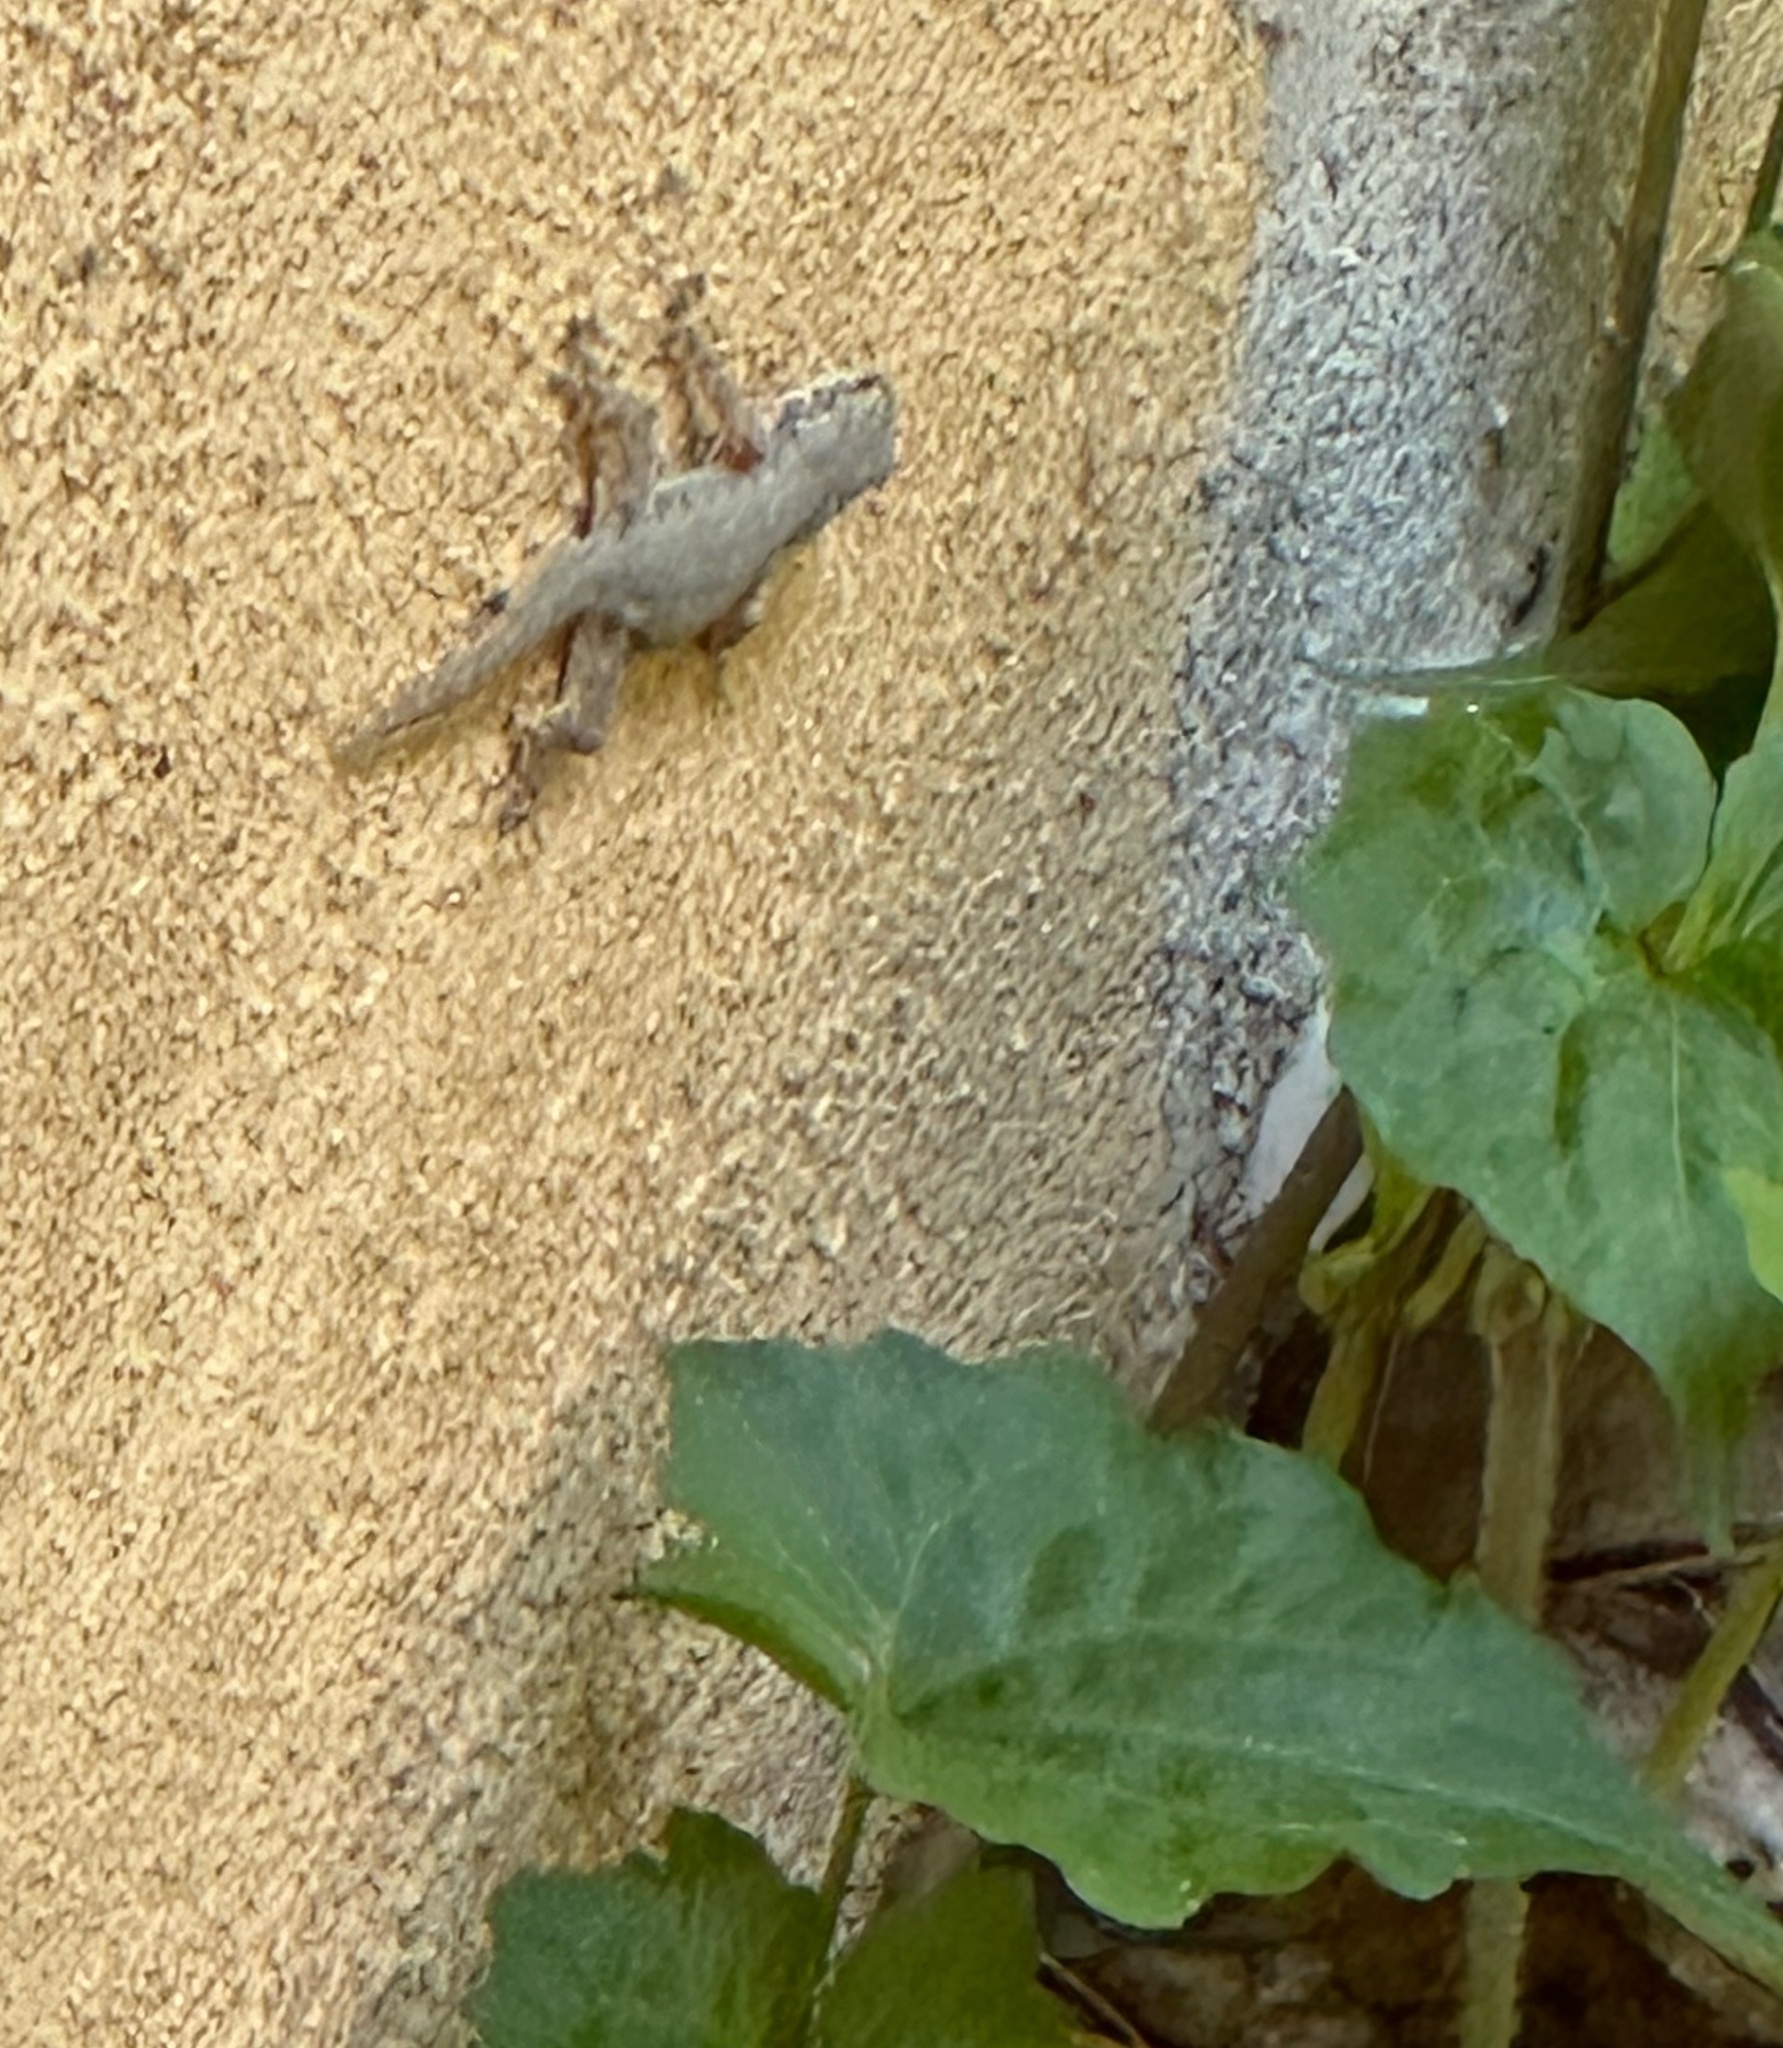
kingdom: Animalia
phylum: Chordata
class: Squamata
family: Gekkonidae
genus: Hemidactylus
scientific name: Hemidactylus platyurus
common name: Flat-tailed house gecko
